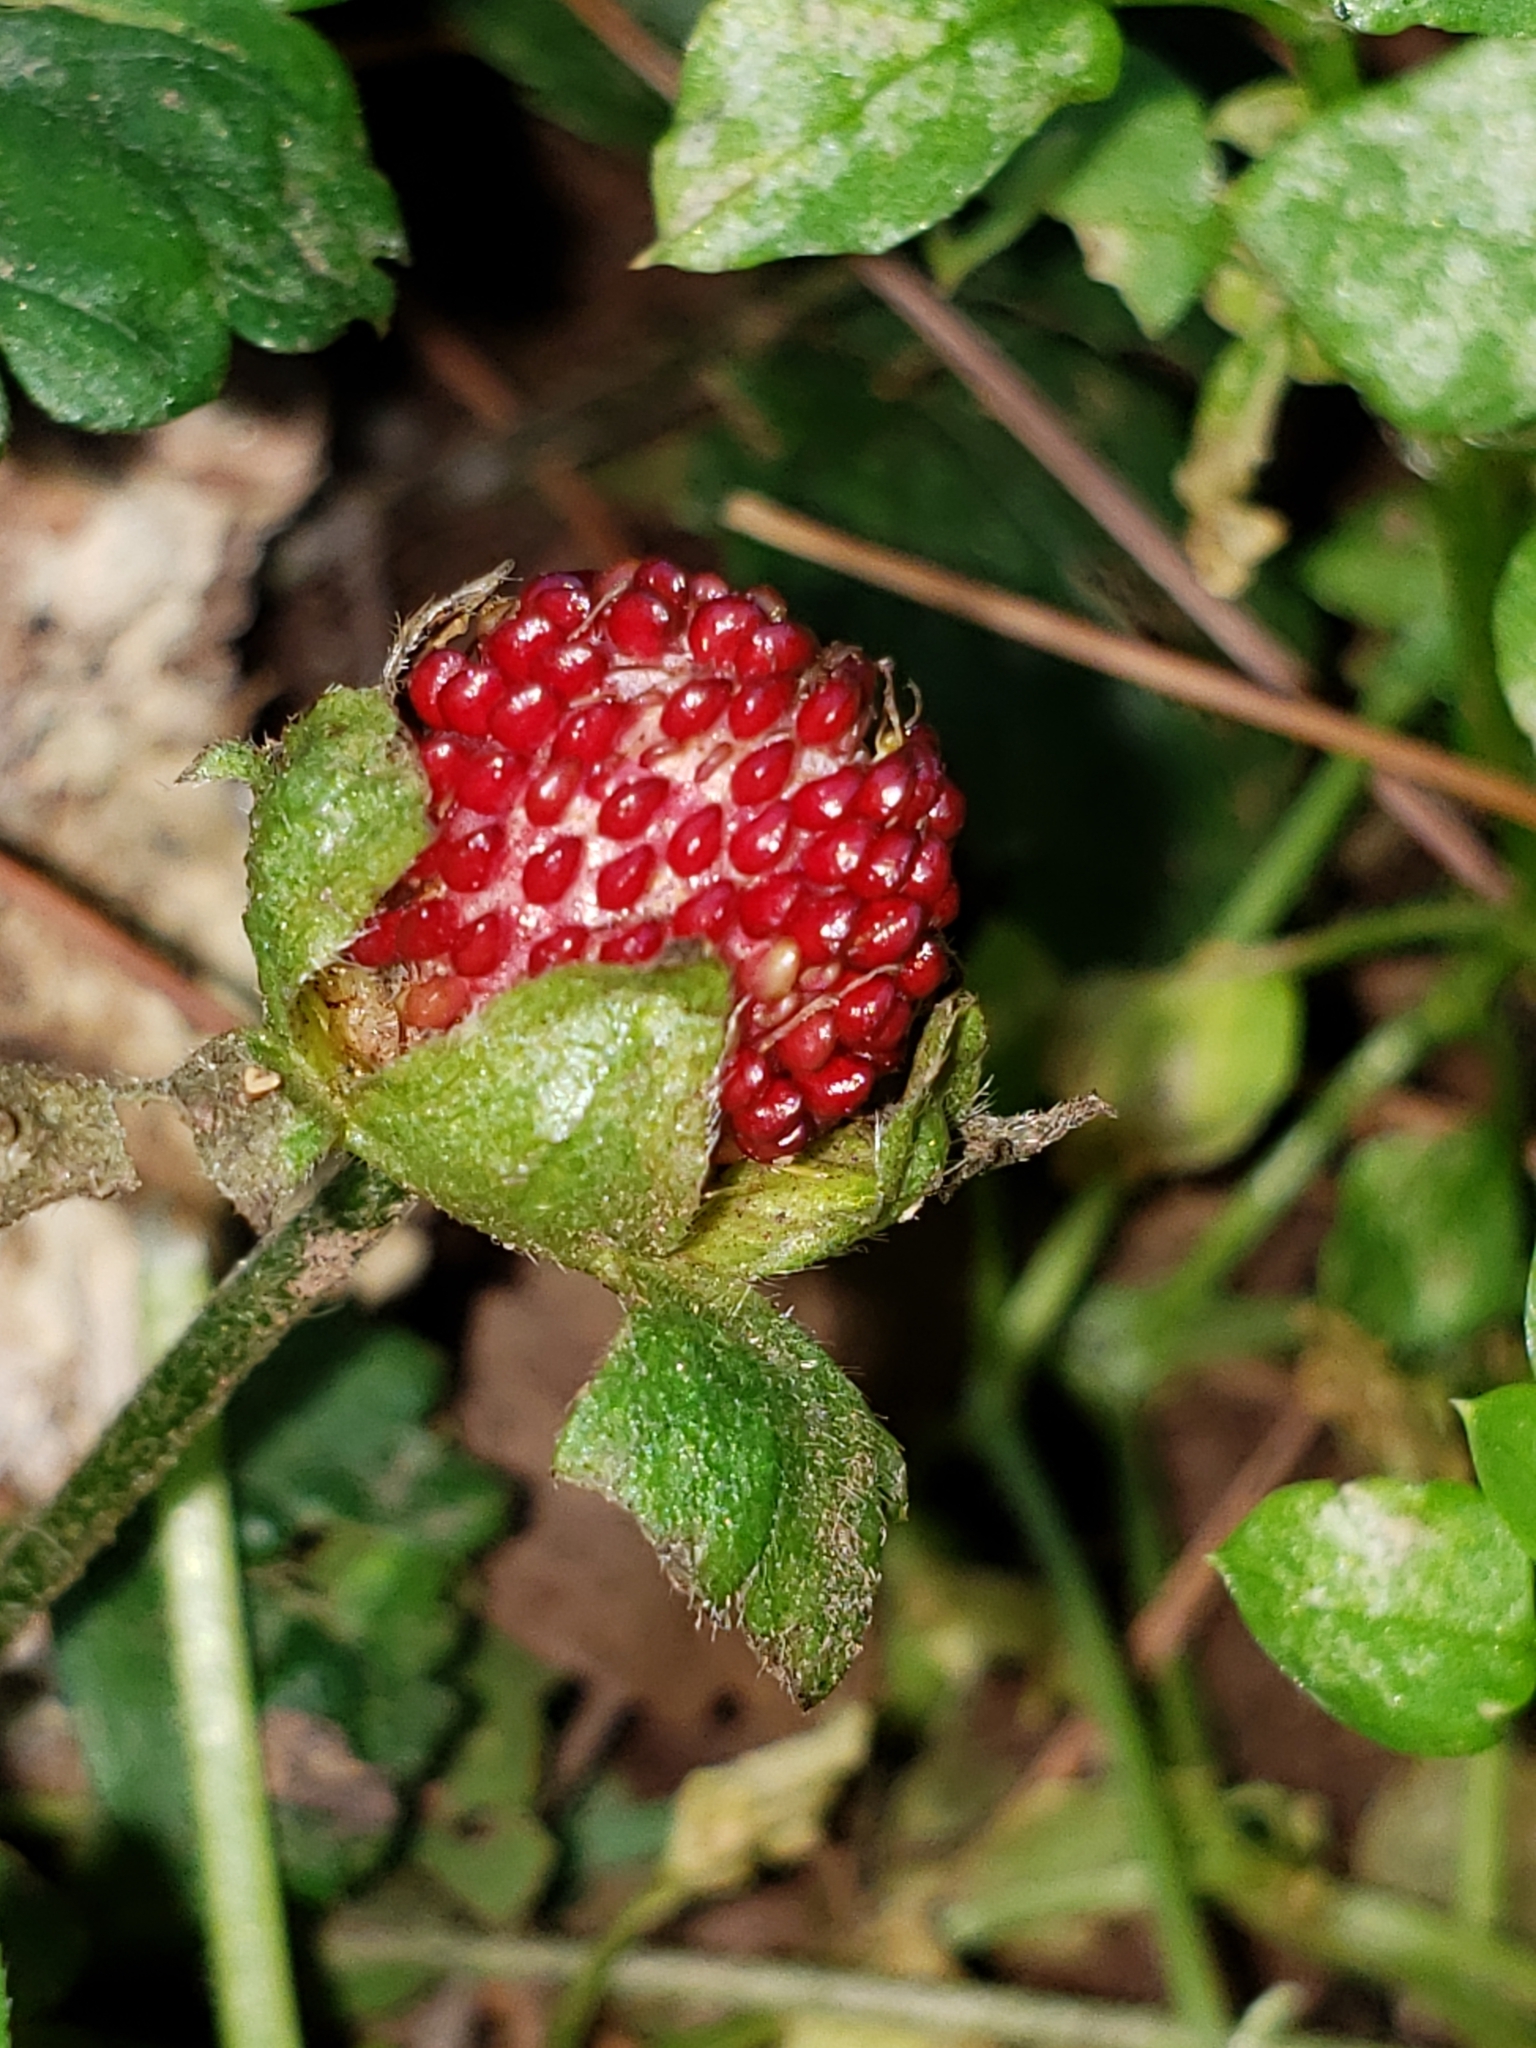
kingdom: Plantae
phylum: Tracheophyta
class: Magnoliopsida
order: Rosales
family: Rosaceae
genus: Potentilla
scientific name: Potentilla indica
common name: Yellow-flowered strawberry
